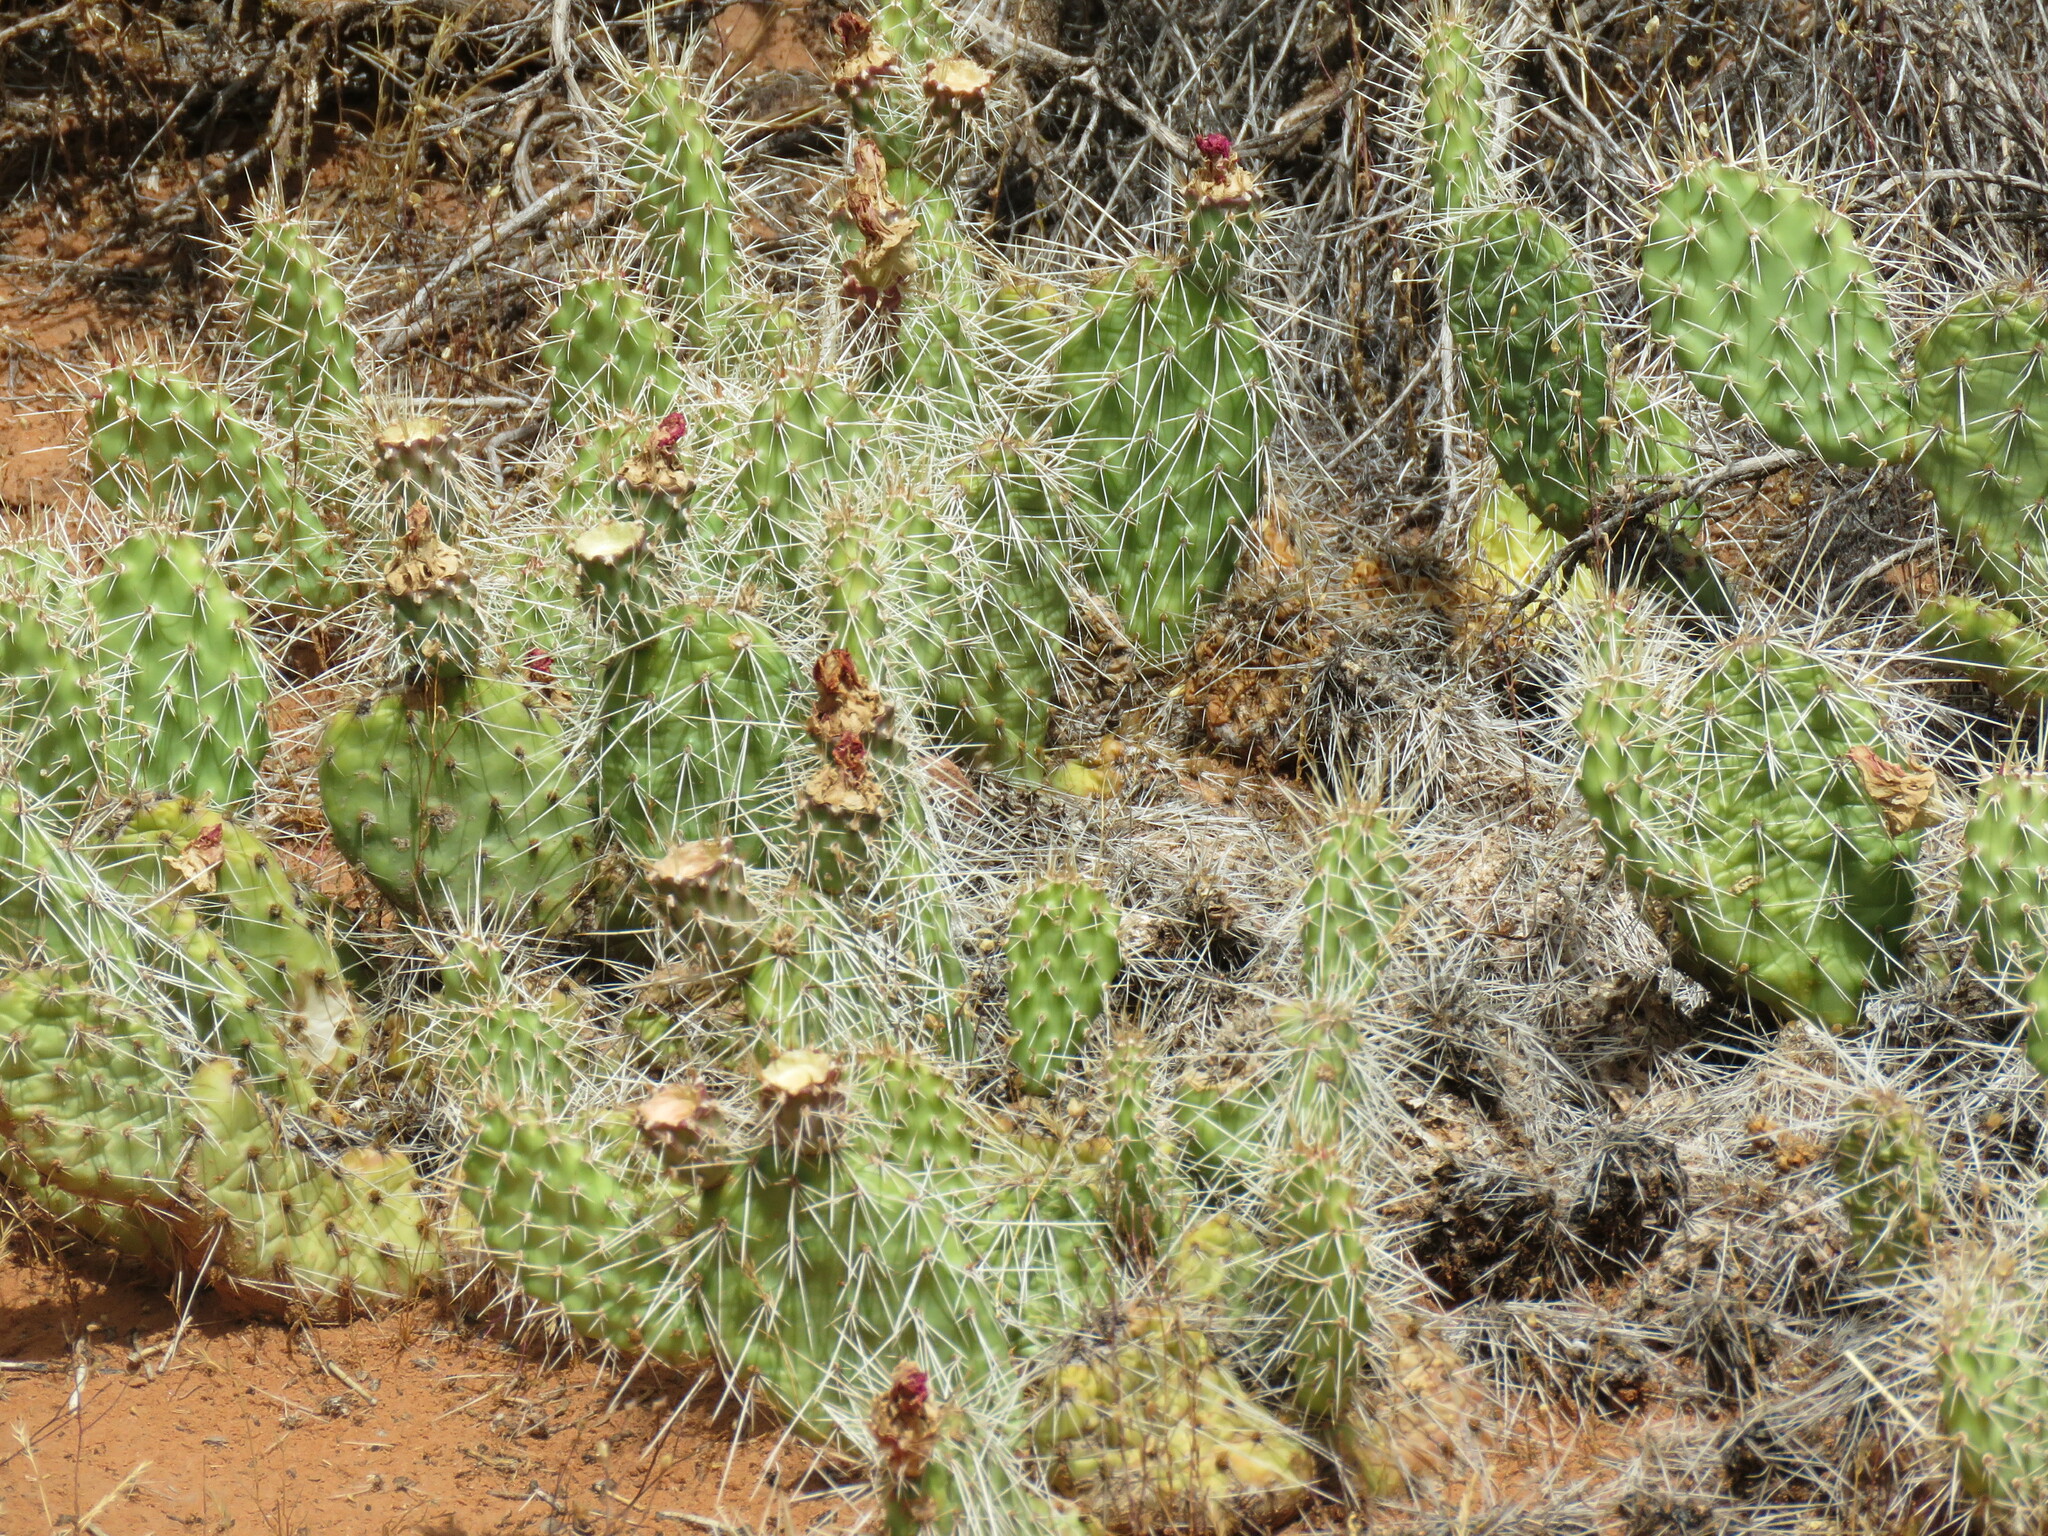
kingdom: Plantae
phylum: Tracheophyta
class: Magnoliopsida
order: Caryophyllales
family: Cactaceae
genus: Opuntia
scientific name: Opuntia polyacantha
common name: Plains prickly-pear
